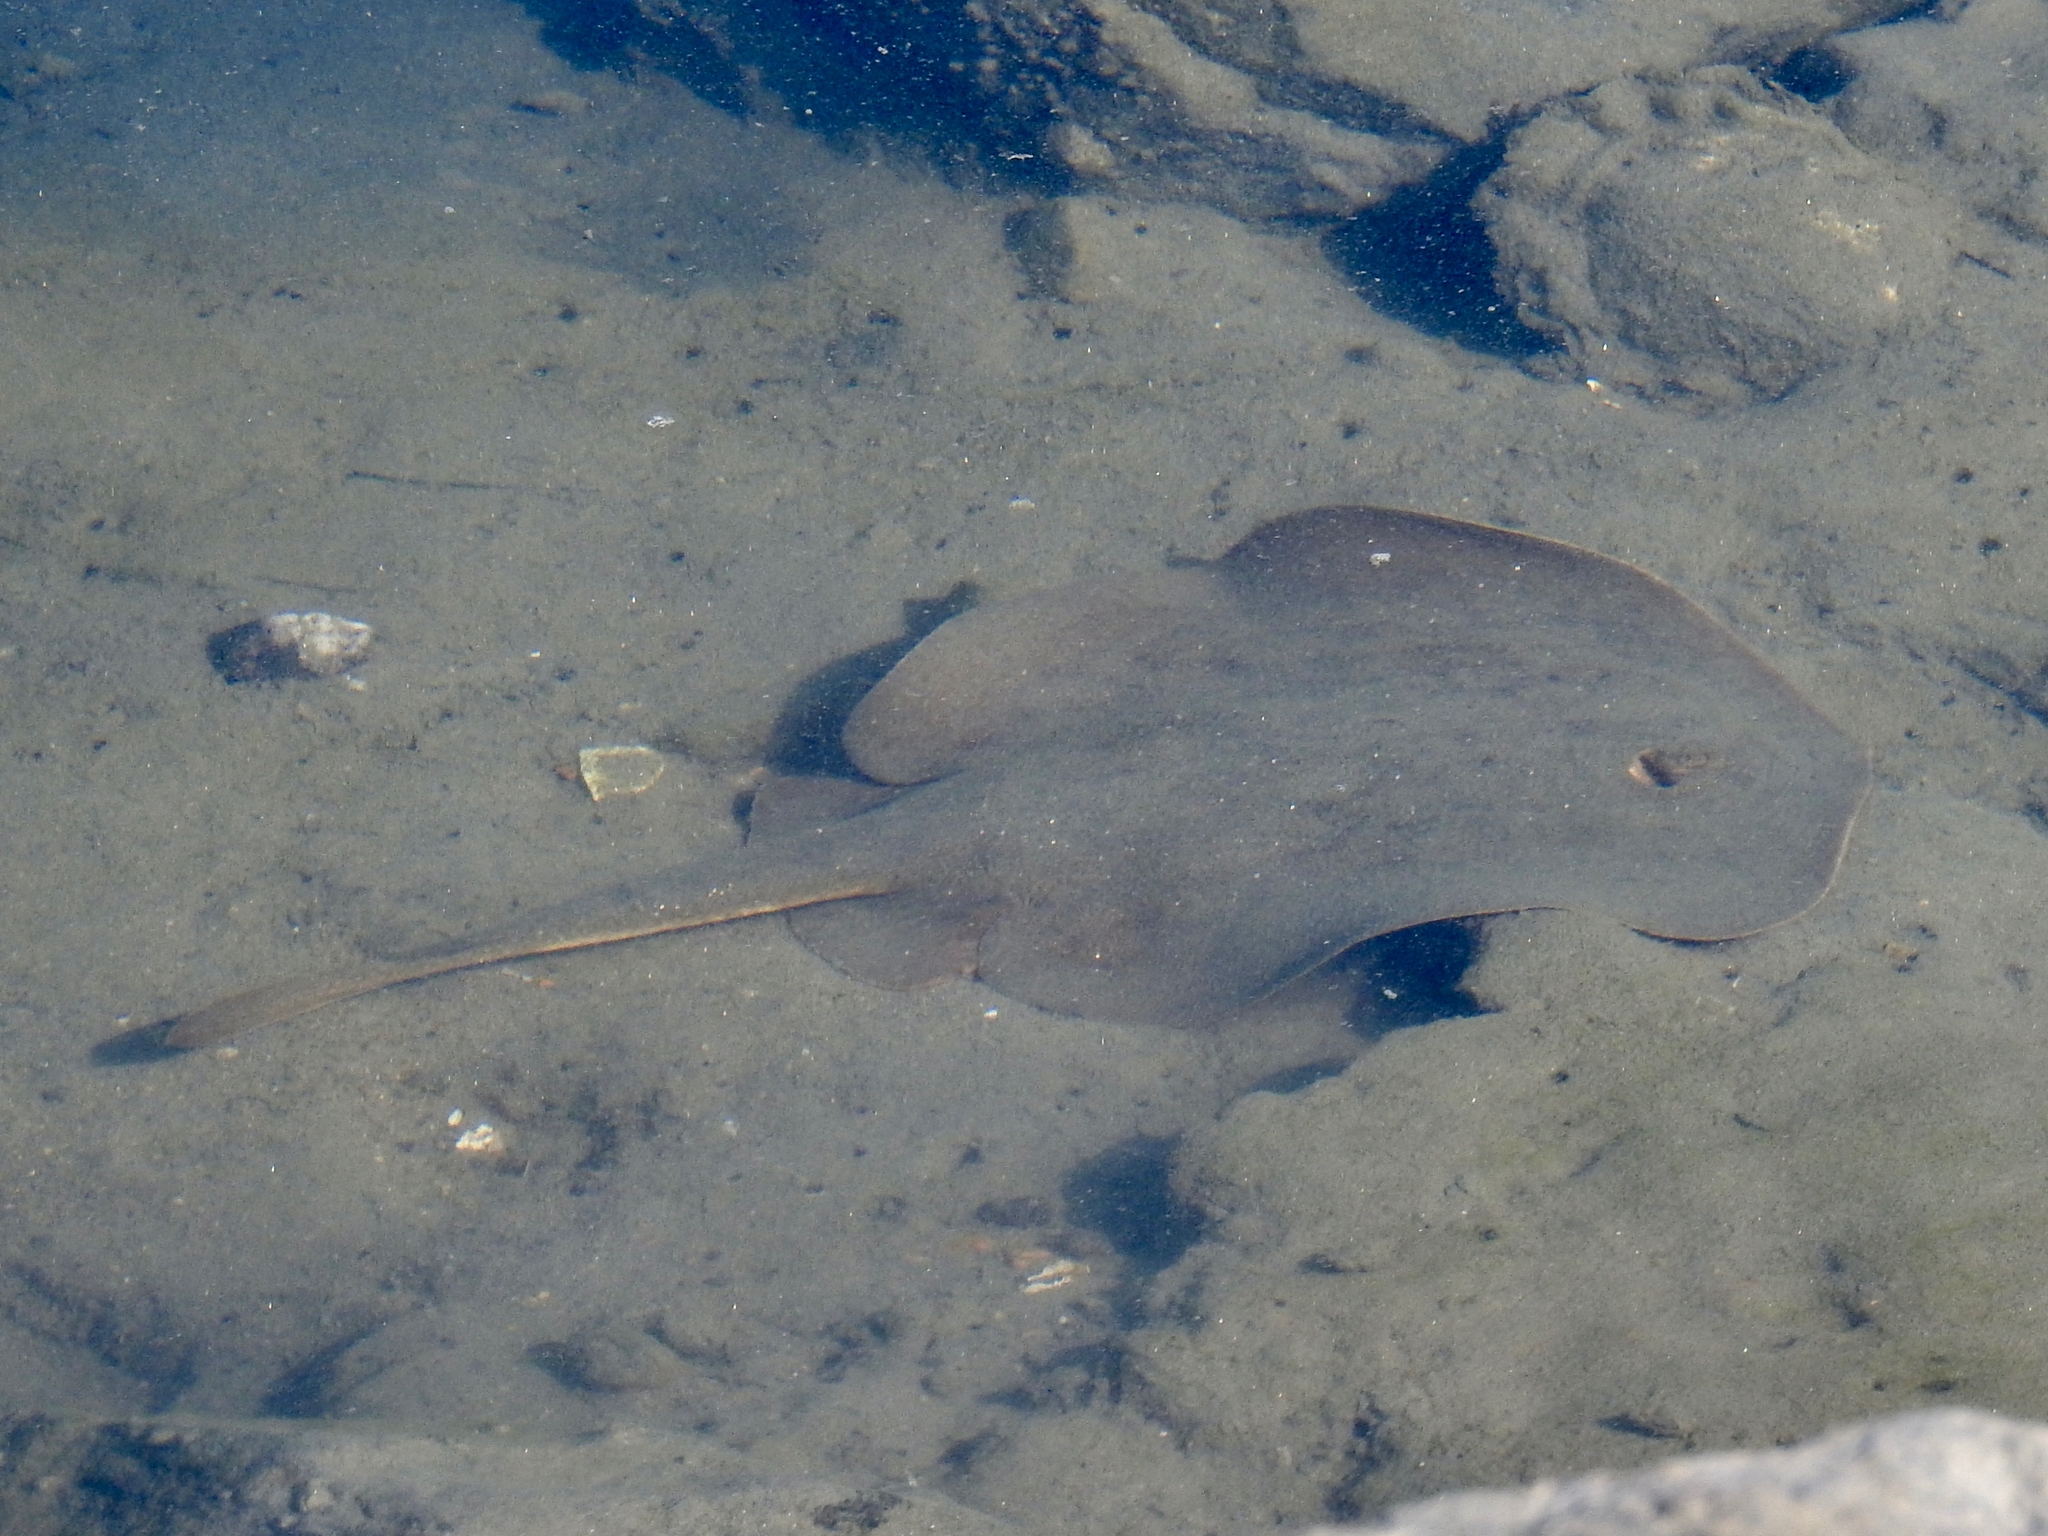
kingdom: Animalia
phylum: Chordata
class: Elasmobranchii
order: Myliobatiformes
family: Urolophidae
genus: Urolophus
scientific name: Urolophus halleri
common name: Round stingray
